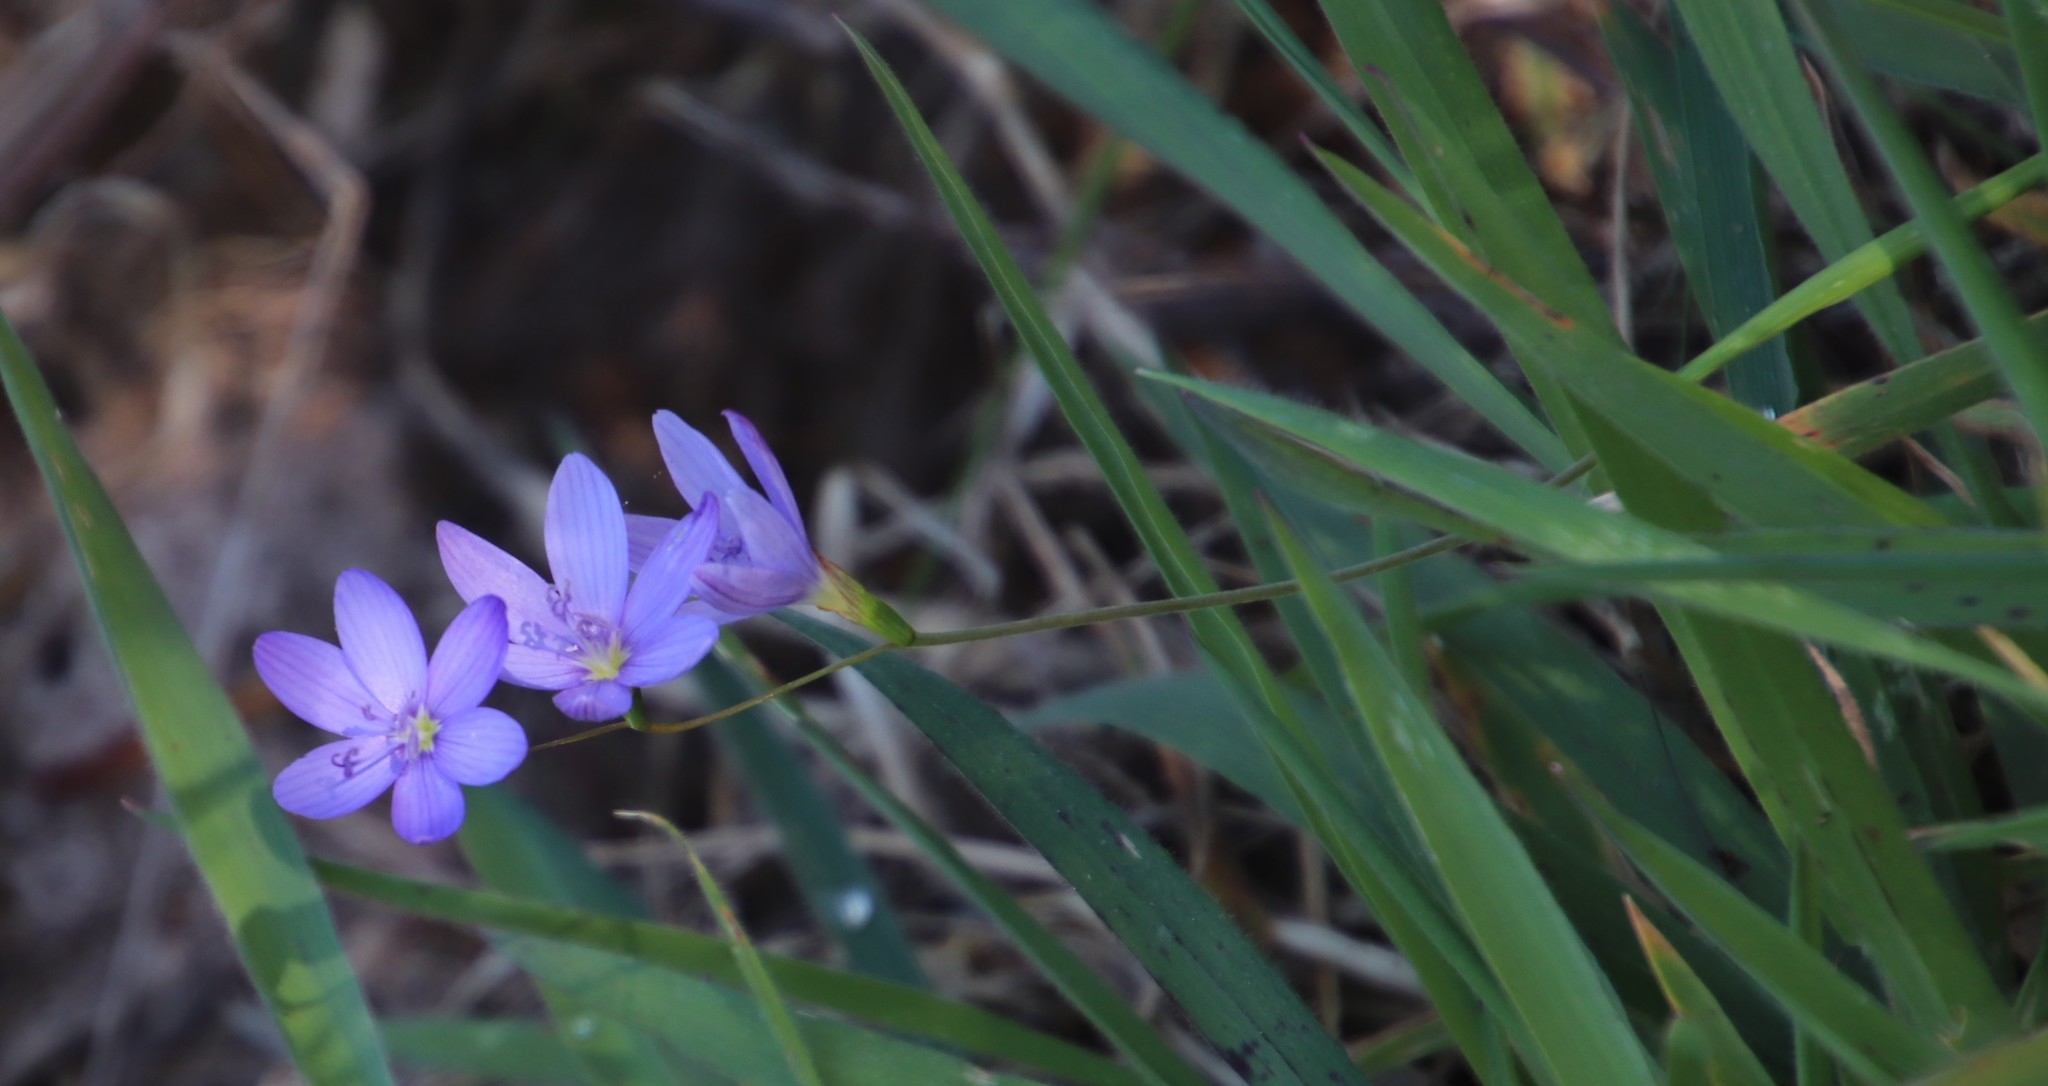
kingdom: Plantae
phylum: Tracheophyta
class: Liliopsida
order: Asparagales
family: Iridaceae
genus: Geissorhiza
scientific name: Geissorhiza aspera
